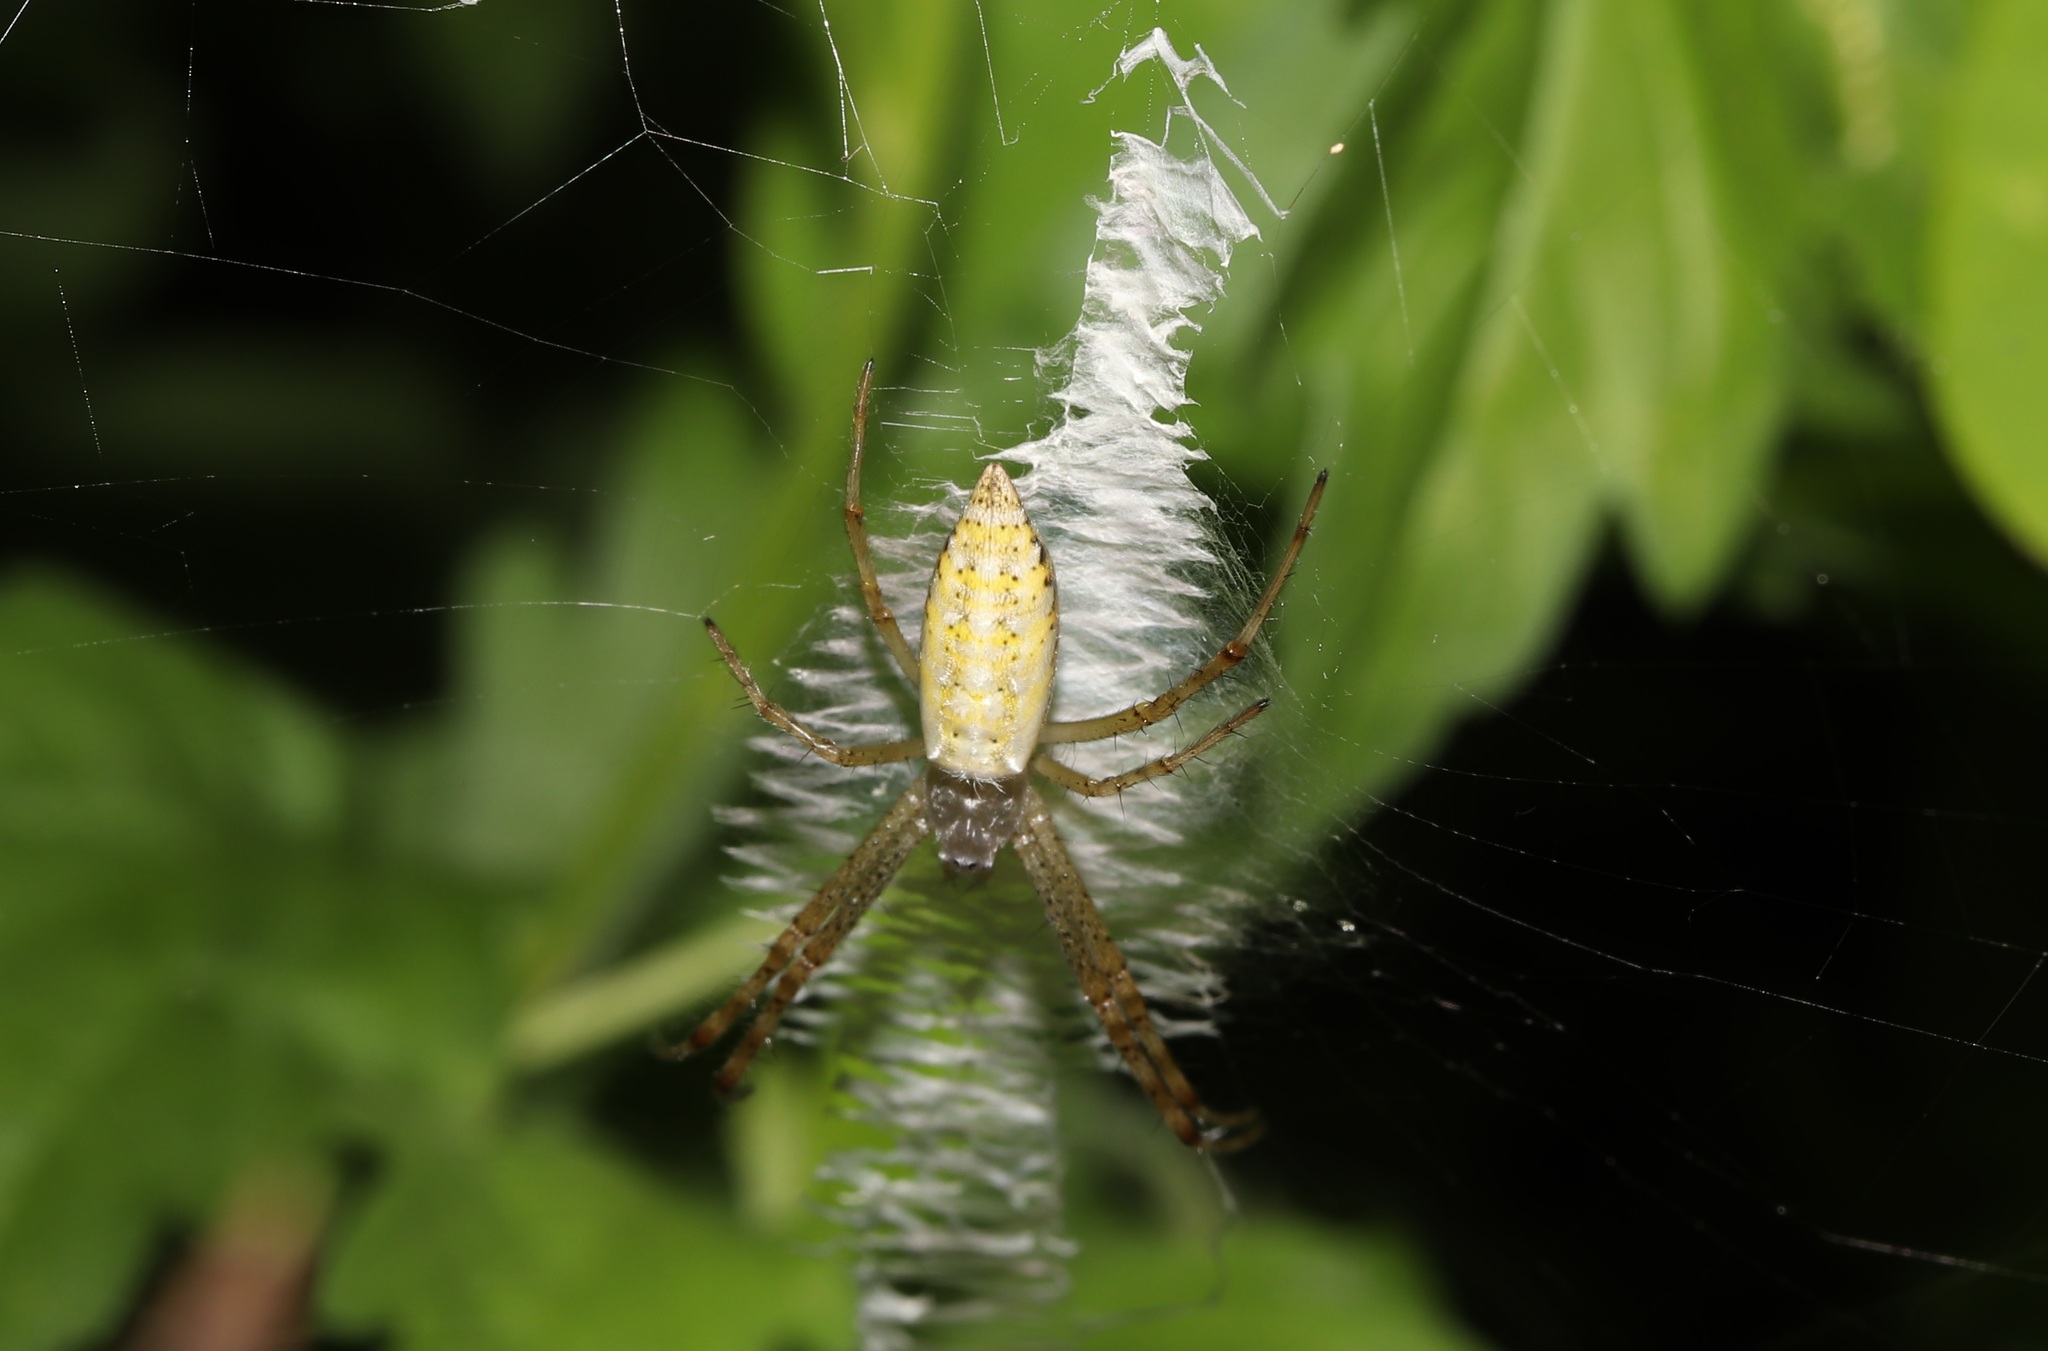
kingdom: Animalia
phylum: Arthropoda
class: Arachnida
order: Araneae
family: Araneidae
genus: Argiope
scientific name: Argiope bruennichi
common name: Wasp spider
